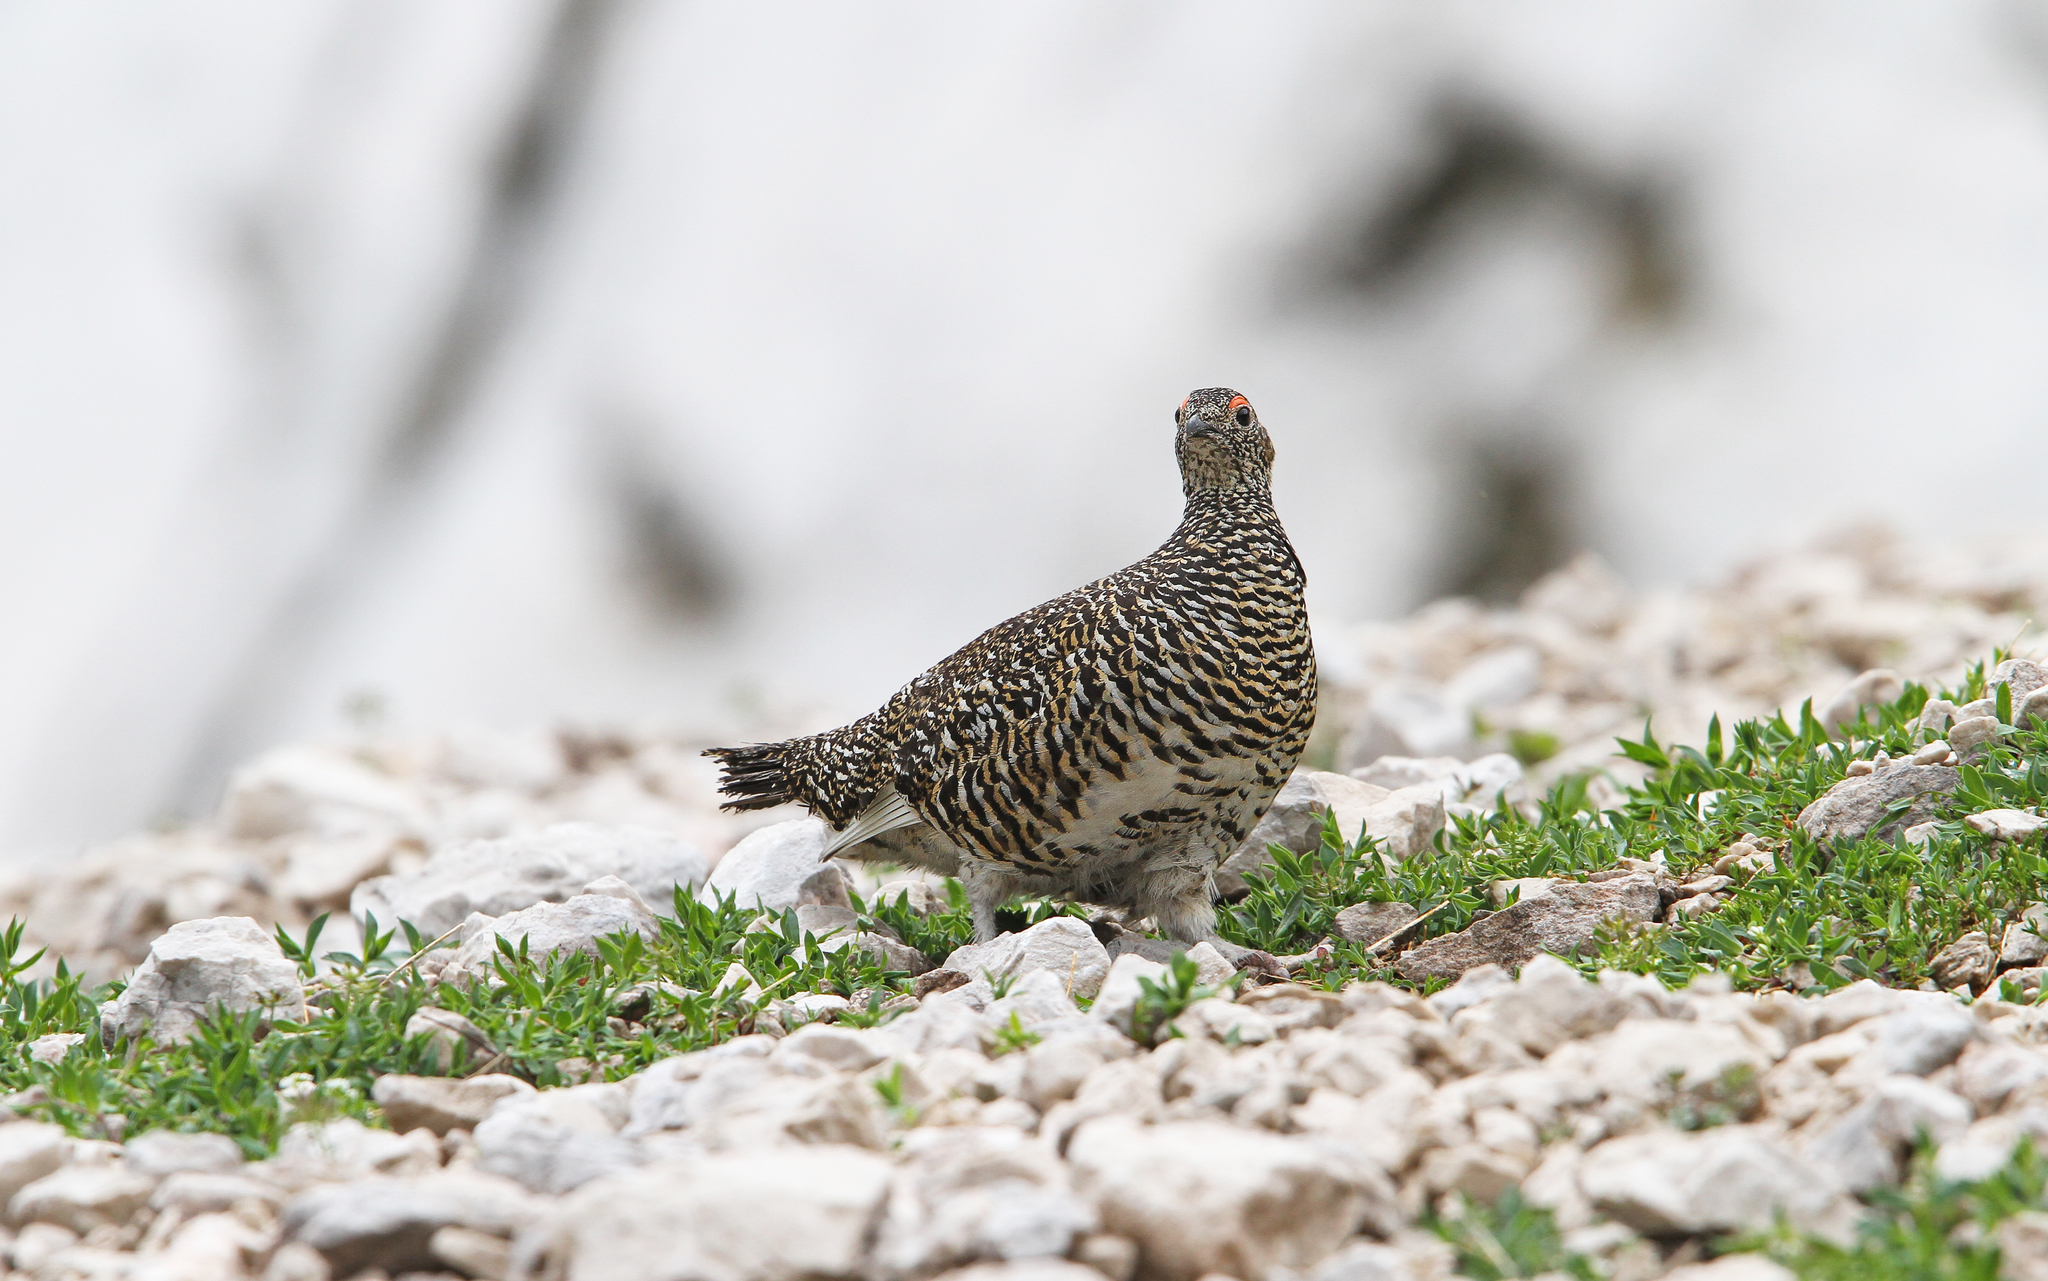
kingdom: Animalia
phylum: Chordata
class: Aves
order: Galliformes
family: Phasianidae
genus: Lagopus
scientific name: Lagopus muta
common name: Rock ptarmigan
